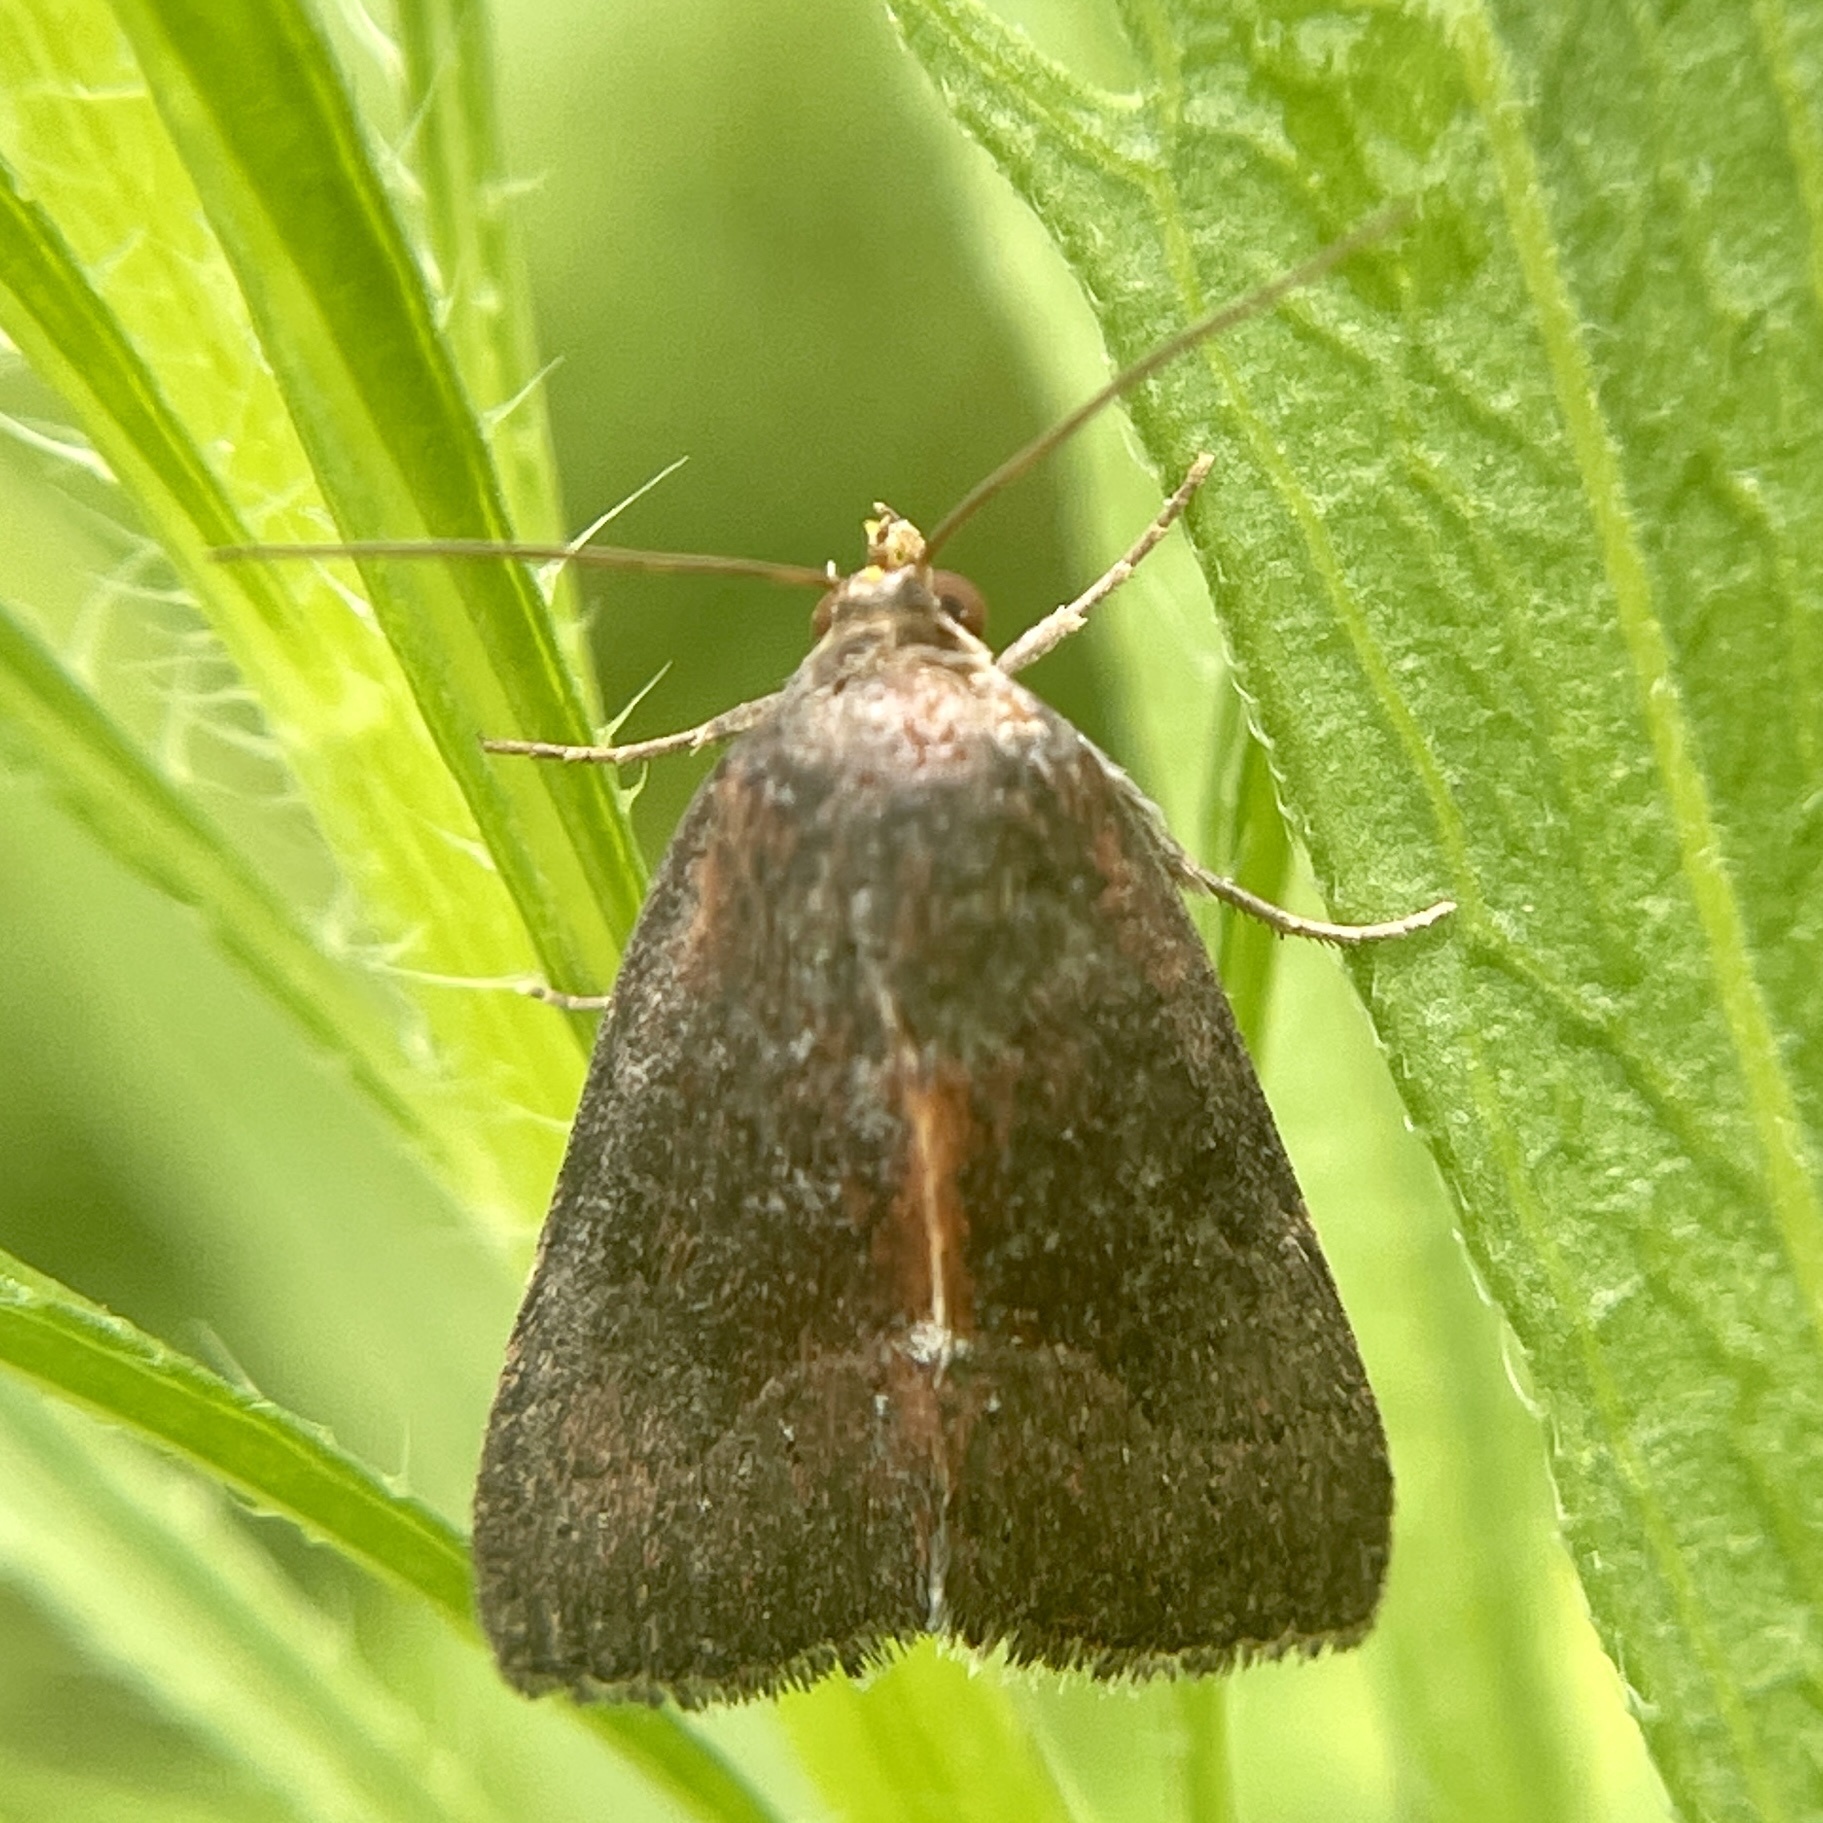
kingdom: Animalia
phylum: Arthropoda
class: Insecta
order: Lepidoptera
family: Noctuidae
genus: Galgula
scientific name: Galgula partita
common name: Wedgeling
